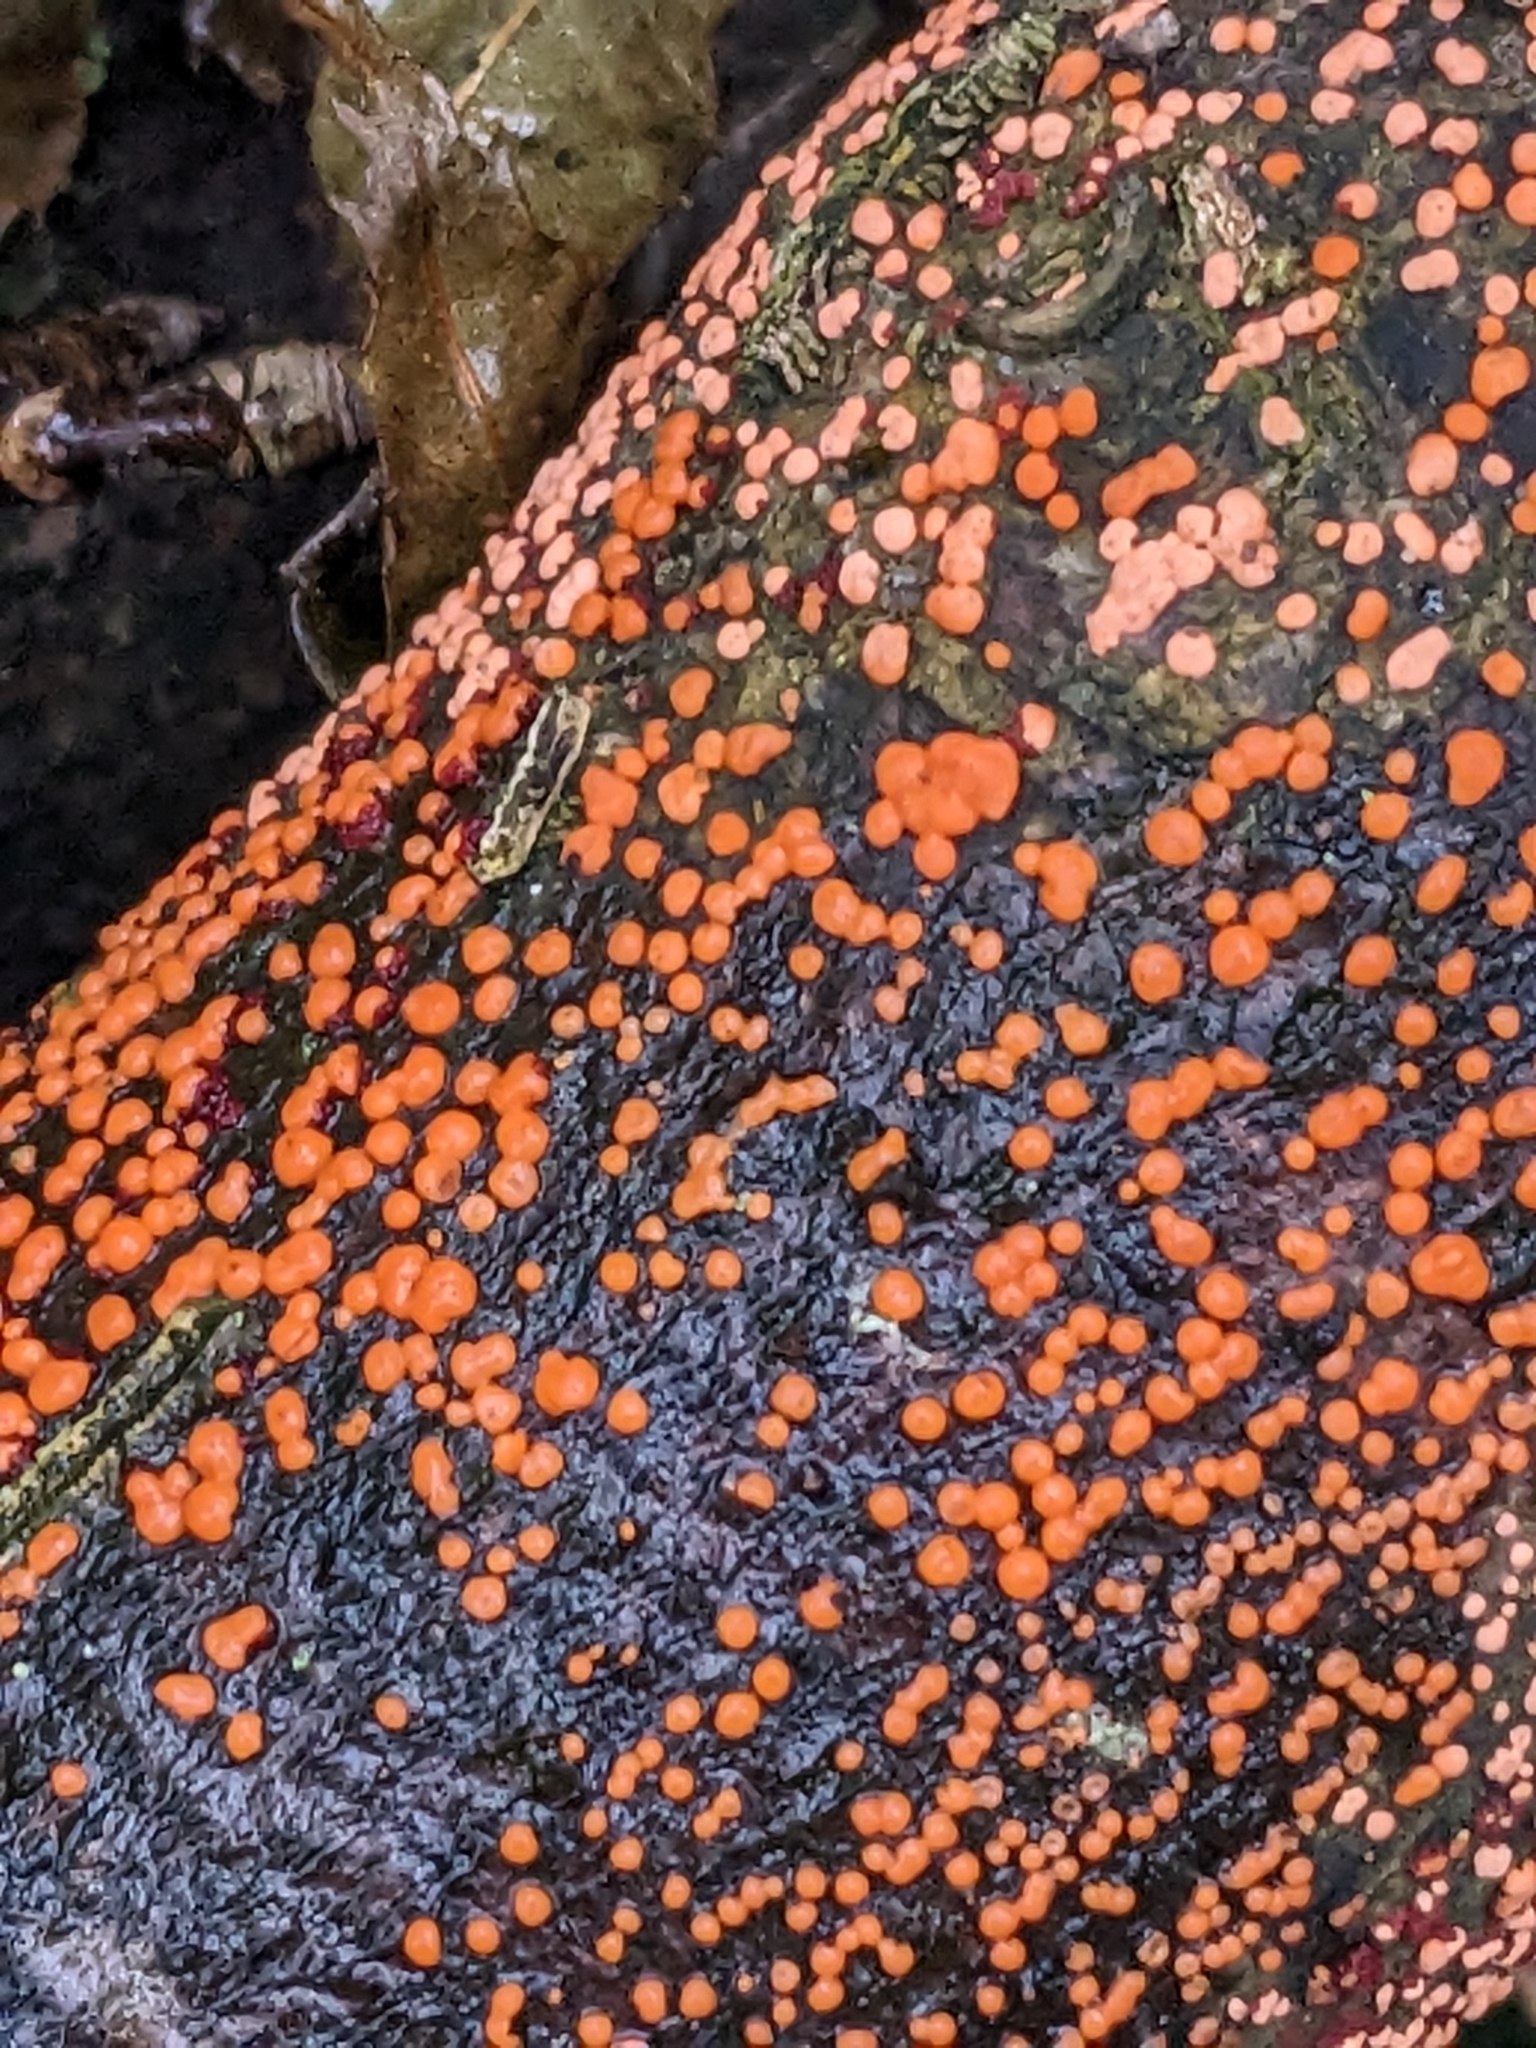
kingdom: Fungi
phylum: Ascomycota
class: Sordariomycetes
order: Hypocreales
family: Nectriaceae
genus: Nectria
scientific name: Nectria cinnabarina
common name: Coral spot
